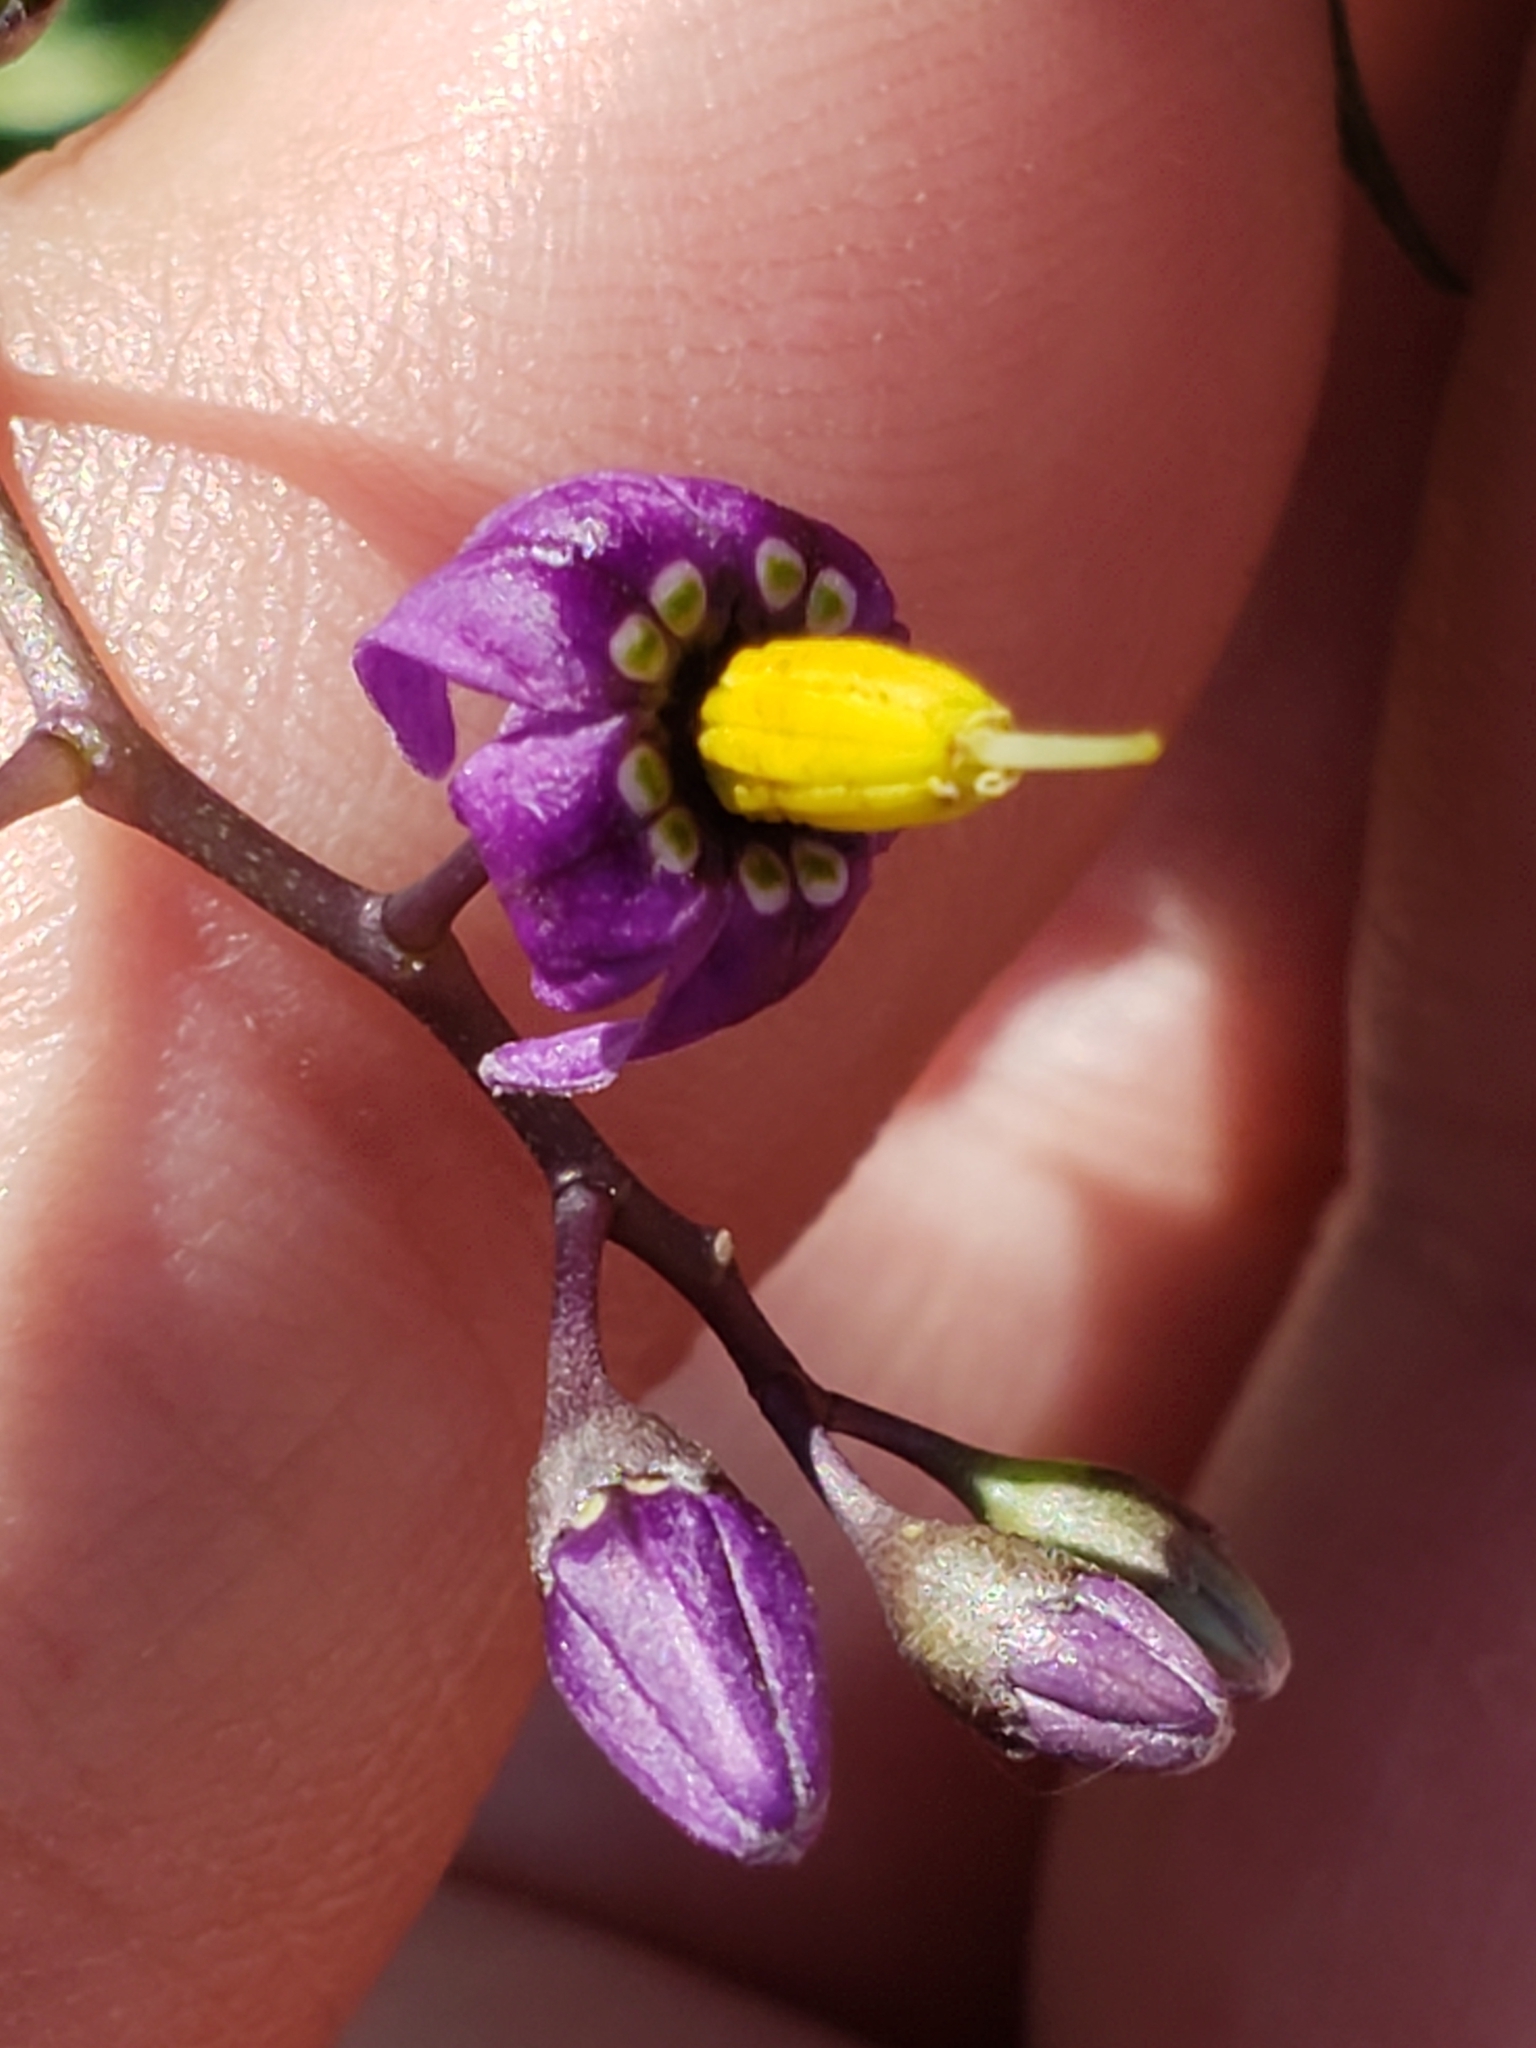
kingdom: Plantae
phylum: Tracheophyta
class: Magnoliopsida
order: Solanales
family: Solanaceae
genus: Solanum
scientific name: Solanum dulcamara
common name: Climbing nightshade
